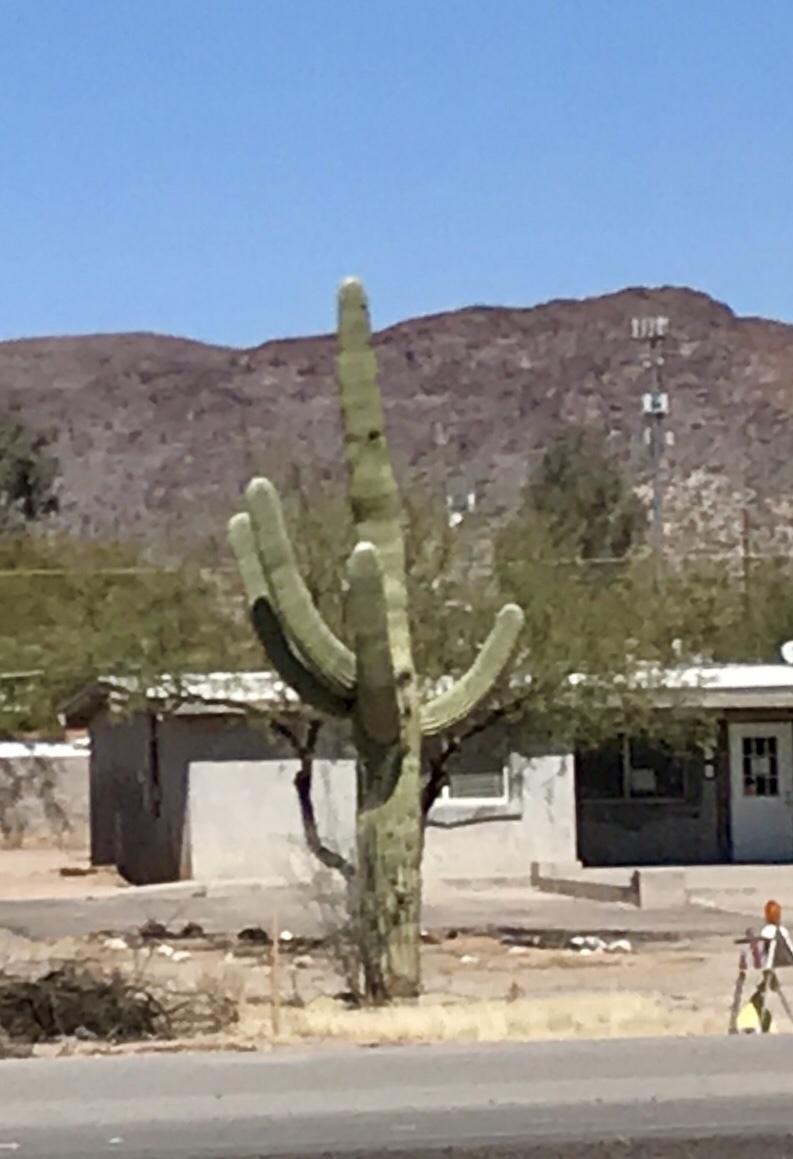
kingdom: Plantae
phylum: Tracheophyta
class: Magnoliopsida
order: Caryophyllales
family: Cactaceae
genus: Carnegiea
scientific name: Carnegiea gigantea
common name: Saguaro
